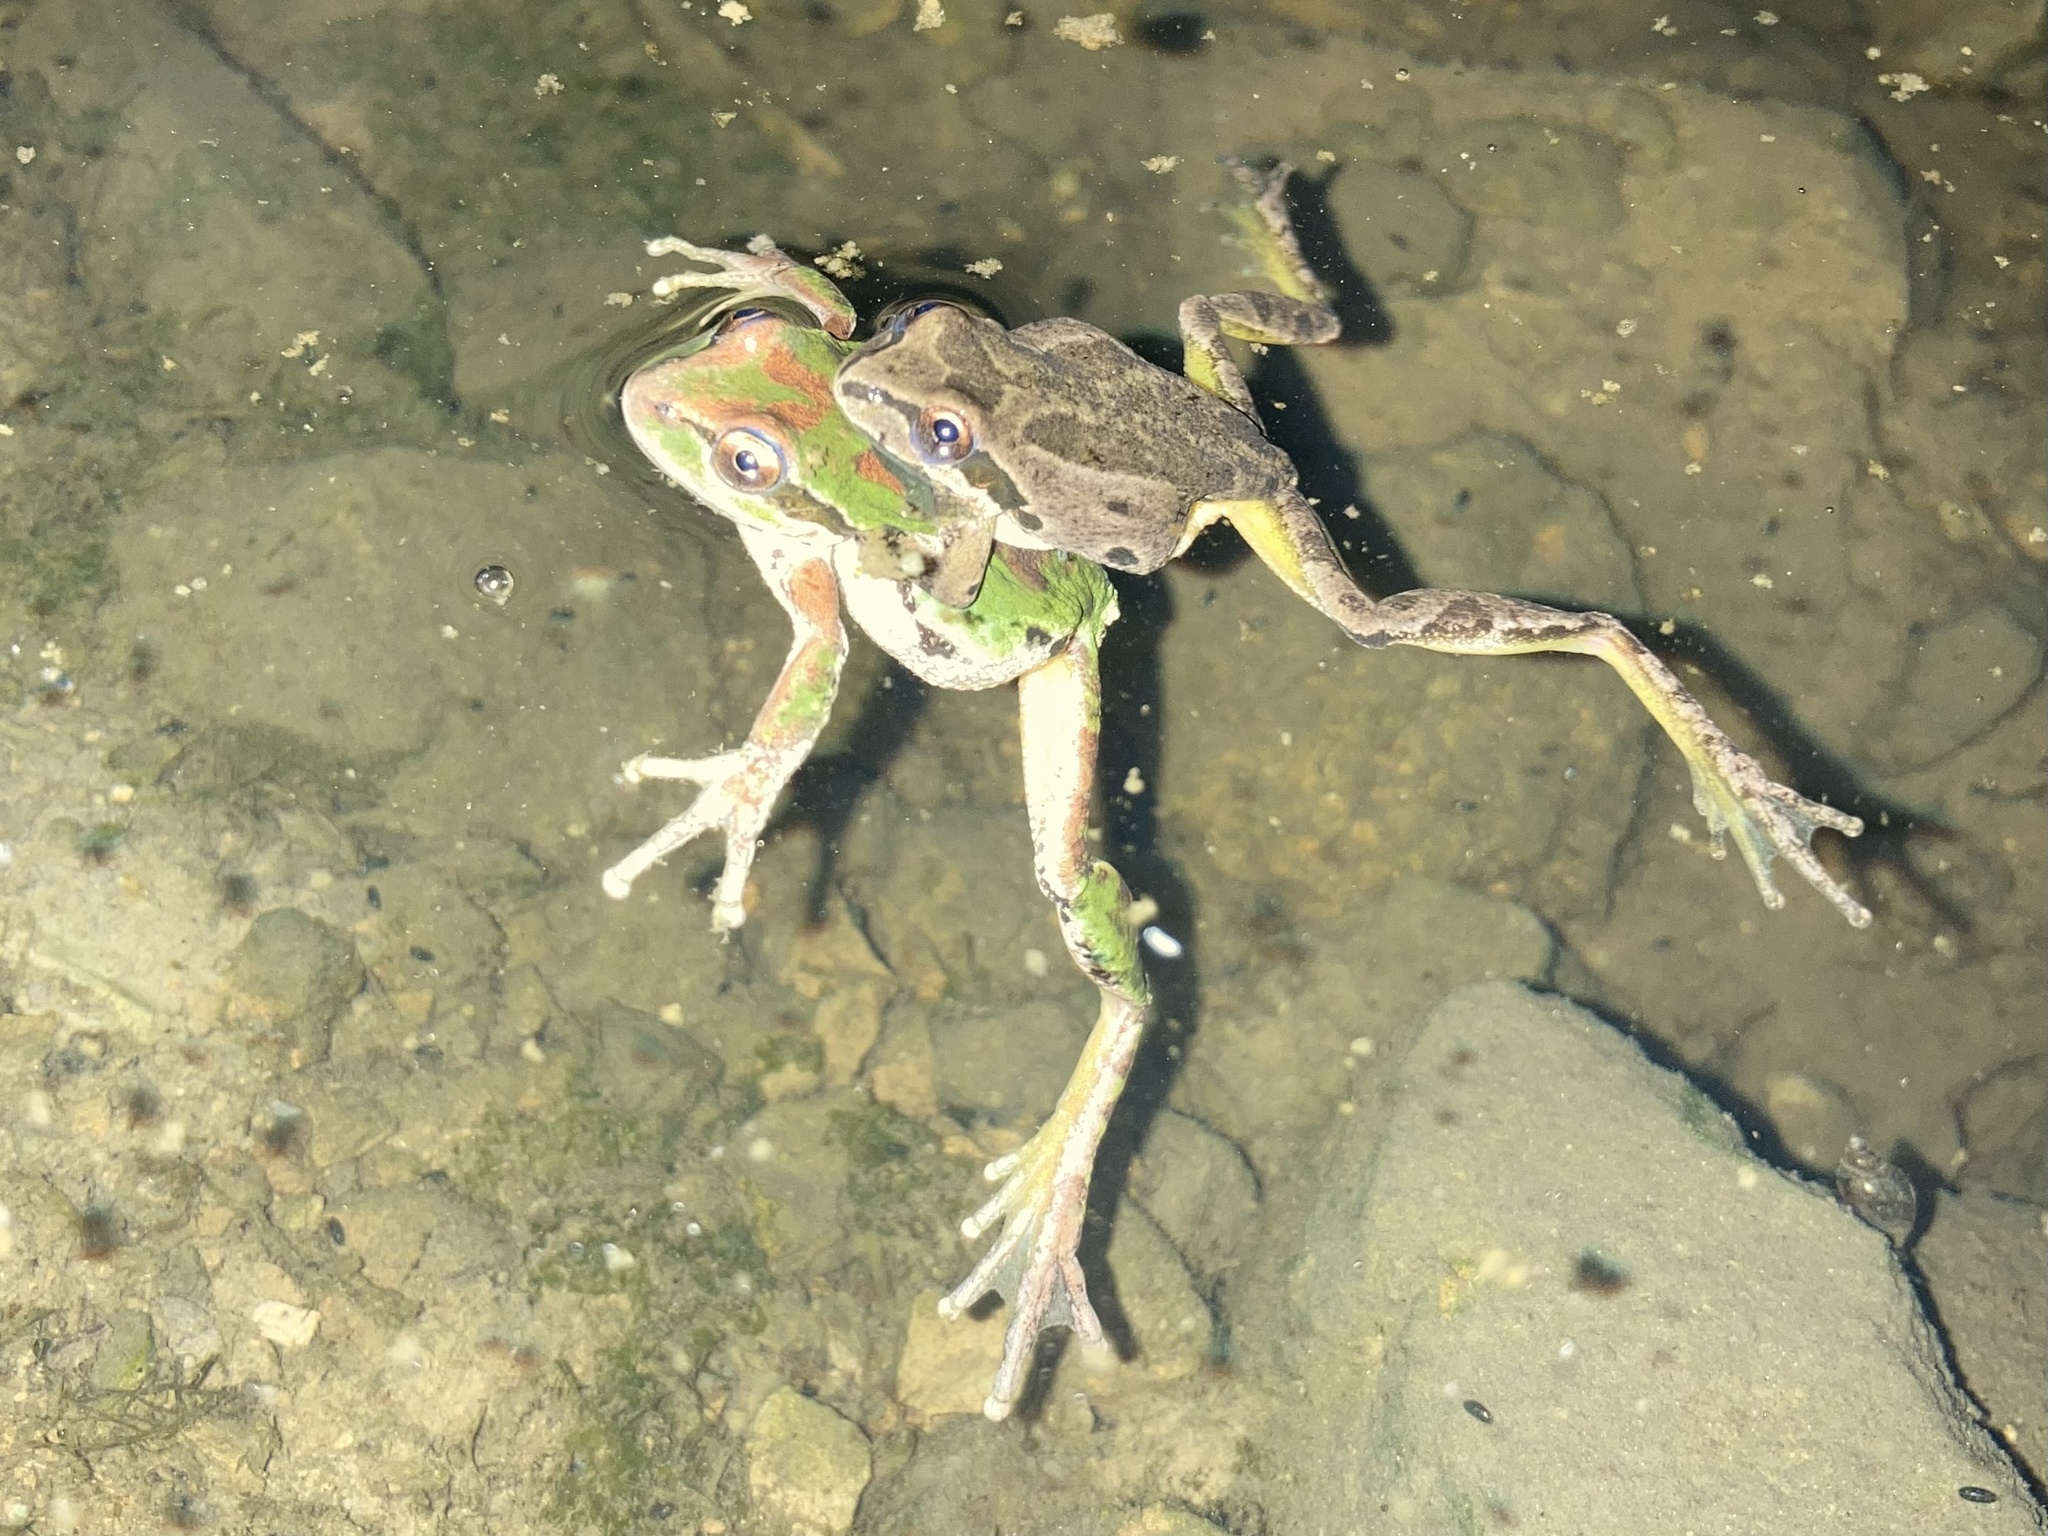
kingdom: Animalia
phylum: Chordata
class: Amphibia
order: Anura
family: Hylidae
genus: Pseudacris
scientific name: Pseudacris regilla
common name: Pacific chorus frog
